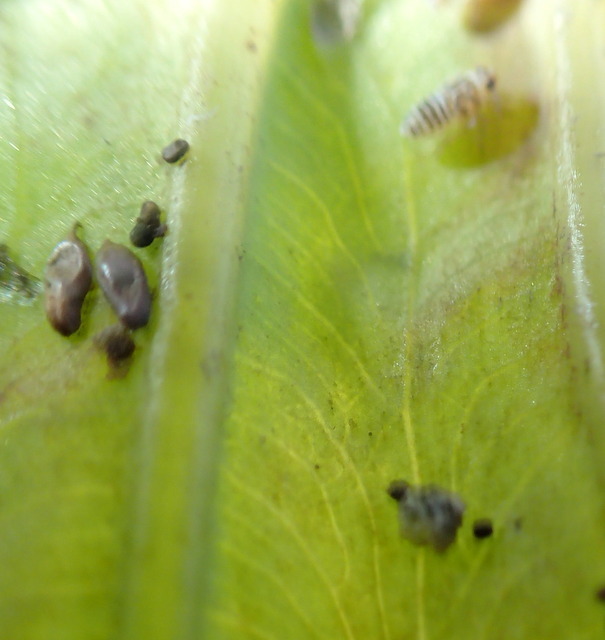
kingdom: Animalia
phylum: Arthropoda
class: Insecta
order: Hemiptera
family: Delphacidae
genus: Tarophagus
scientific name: Tarophagus colocasiae
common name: Taro planthopper
